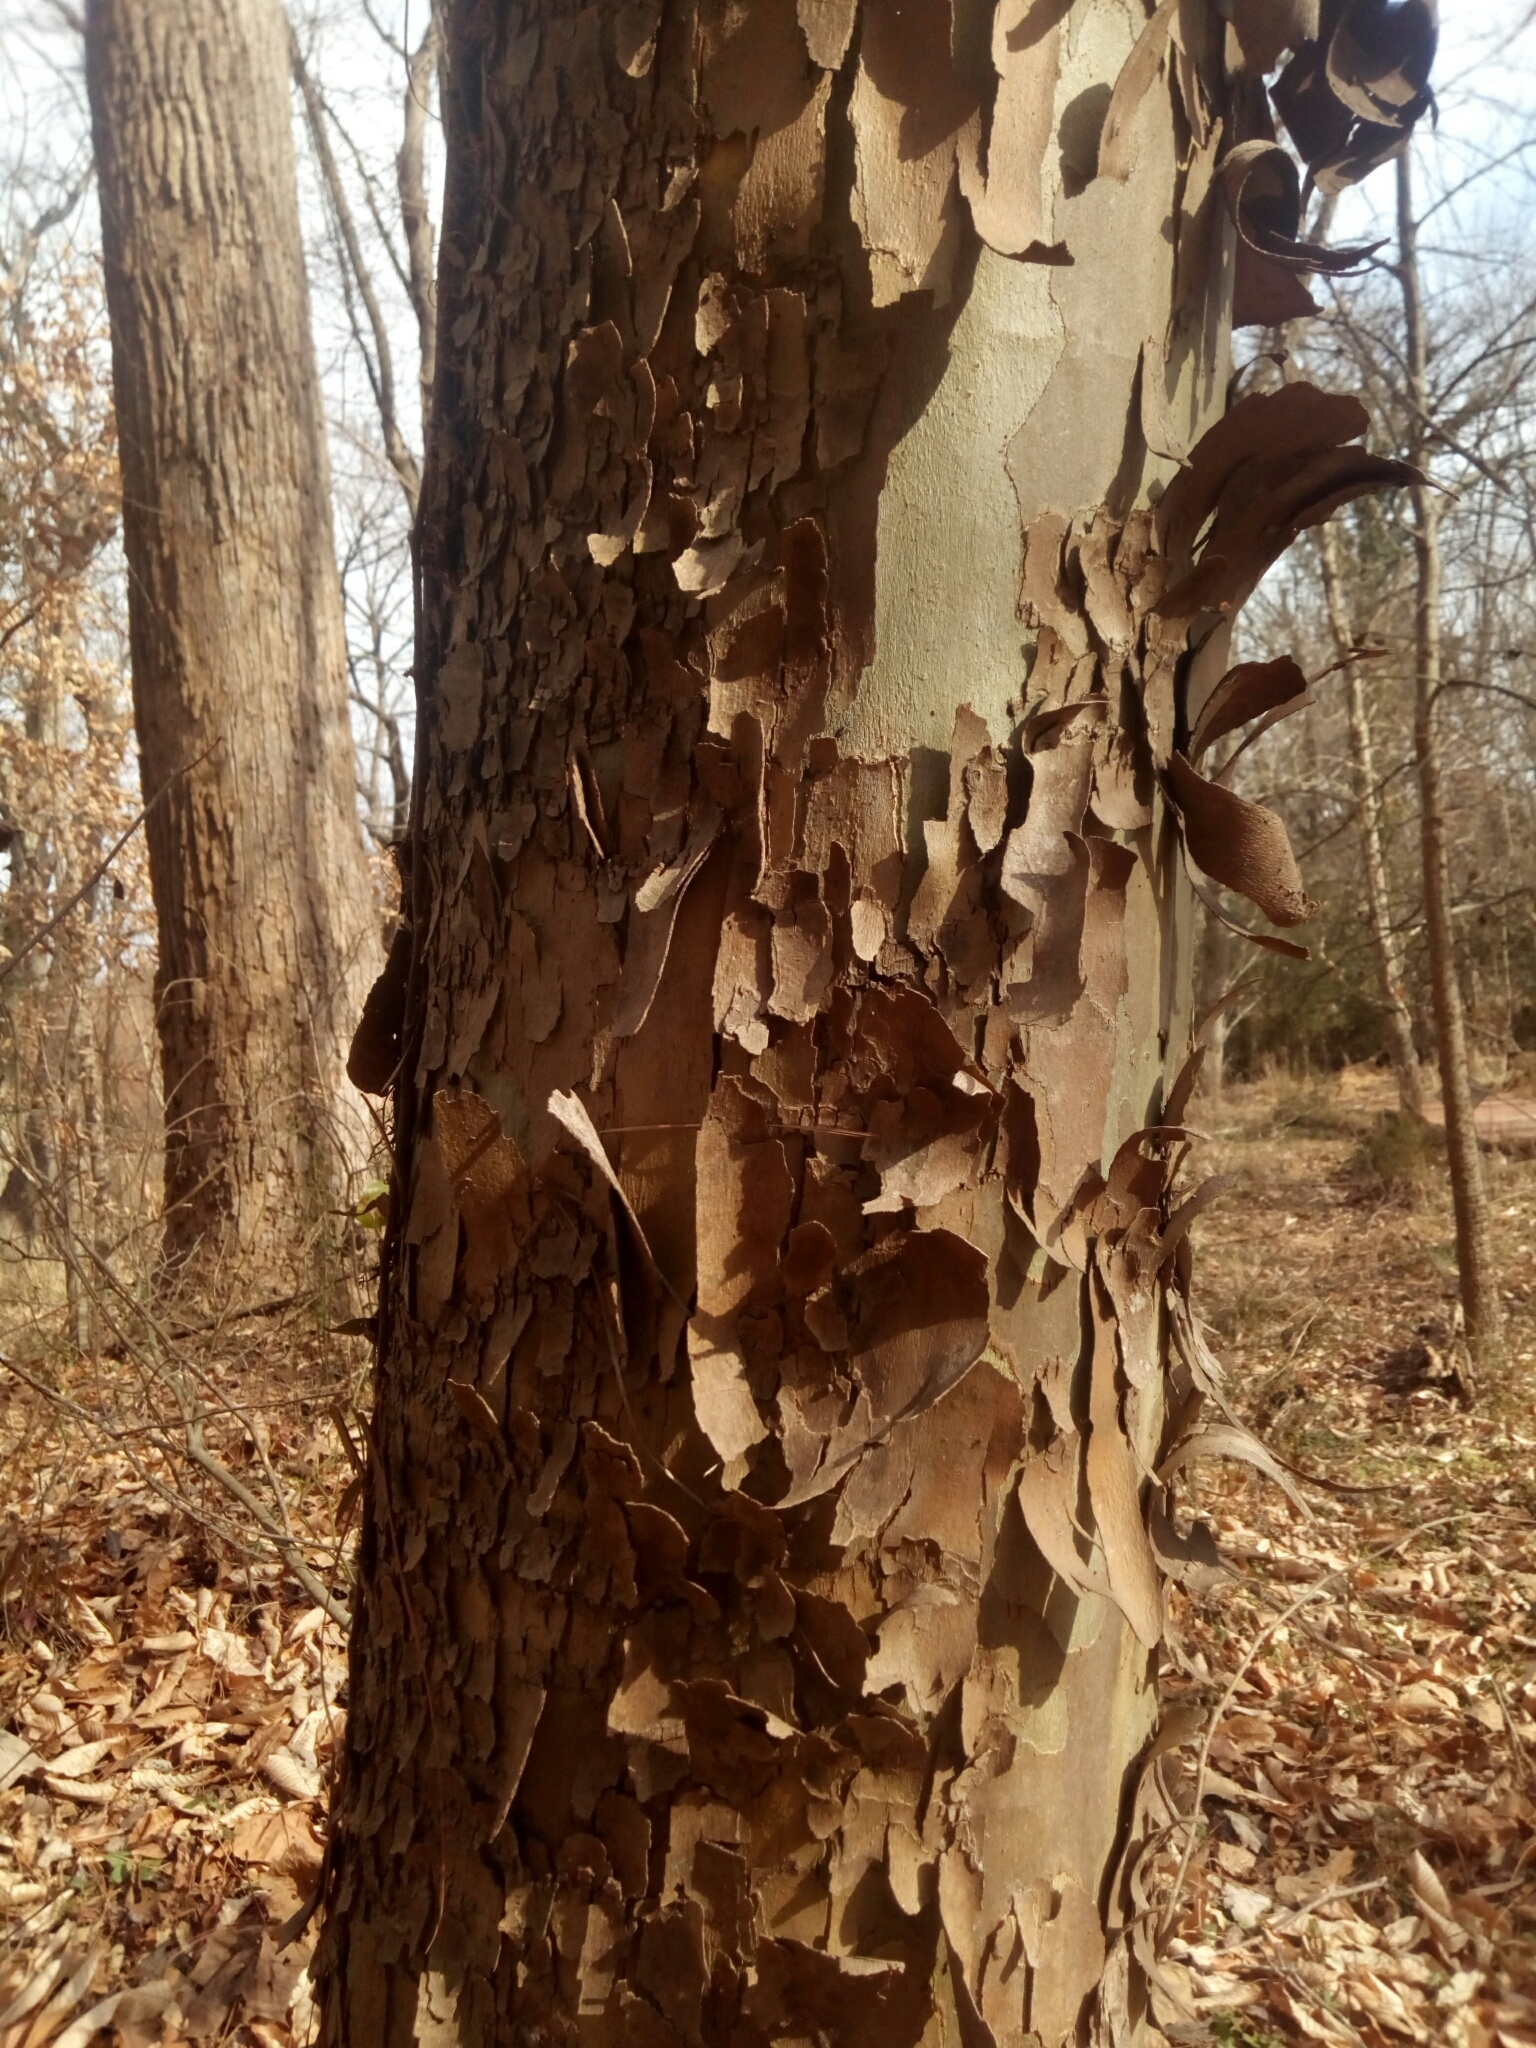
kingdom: Plantae
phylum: Tracheophyta
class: Magnoliopsida
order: Proteales
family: Platanaceae
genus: Platanus
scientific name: Platanus occidentalis
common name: American sycamore
